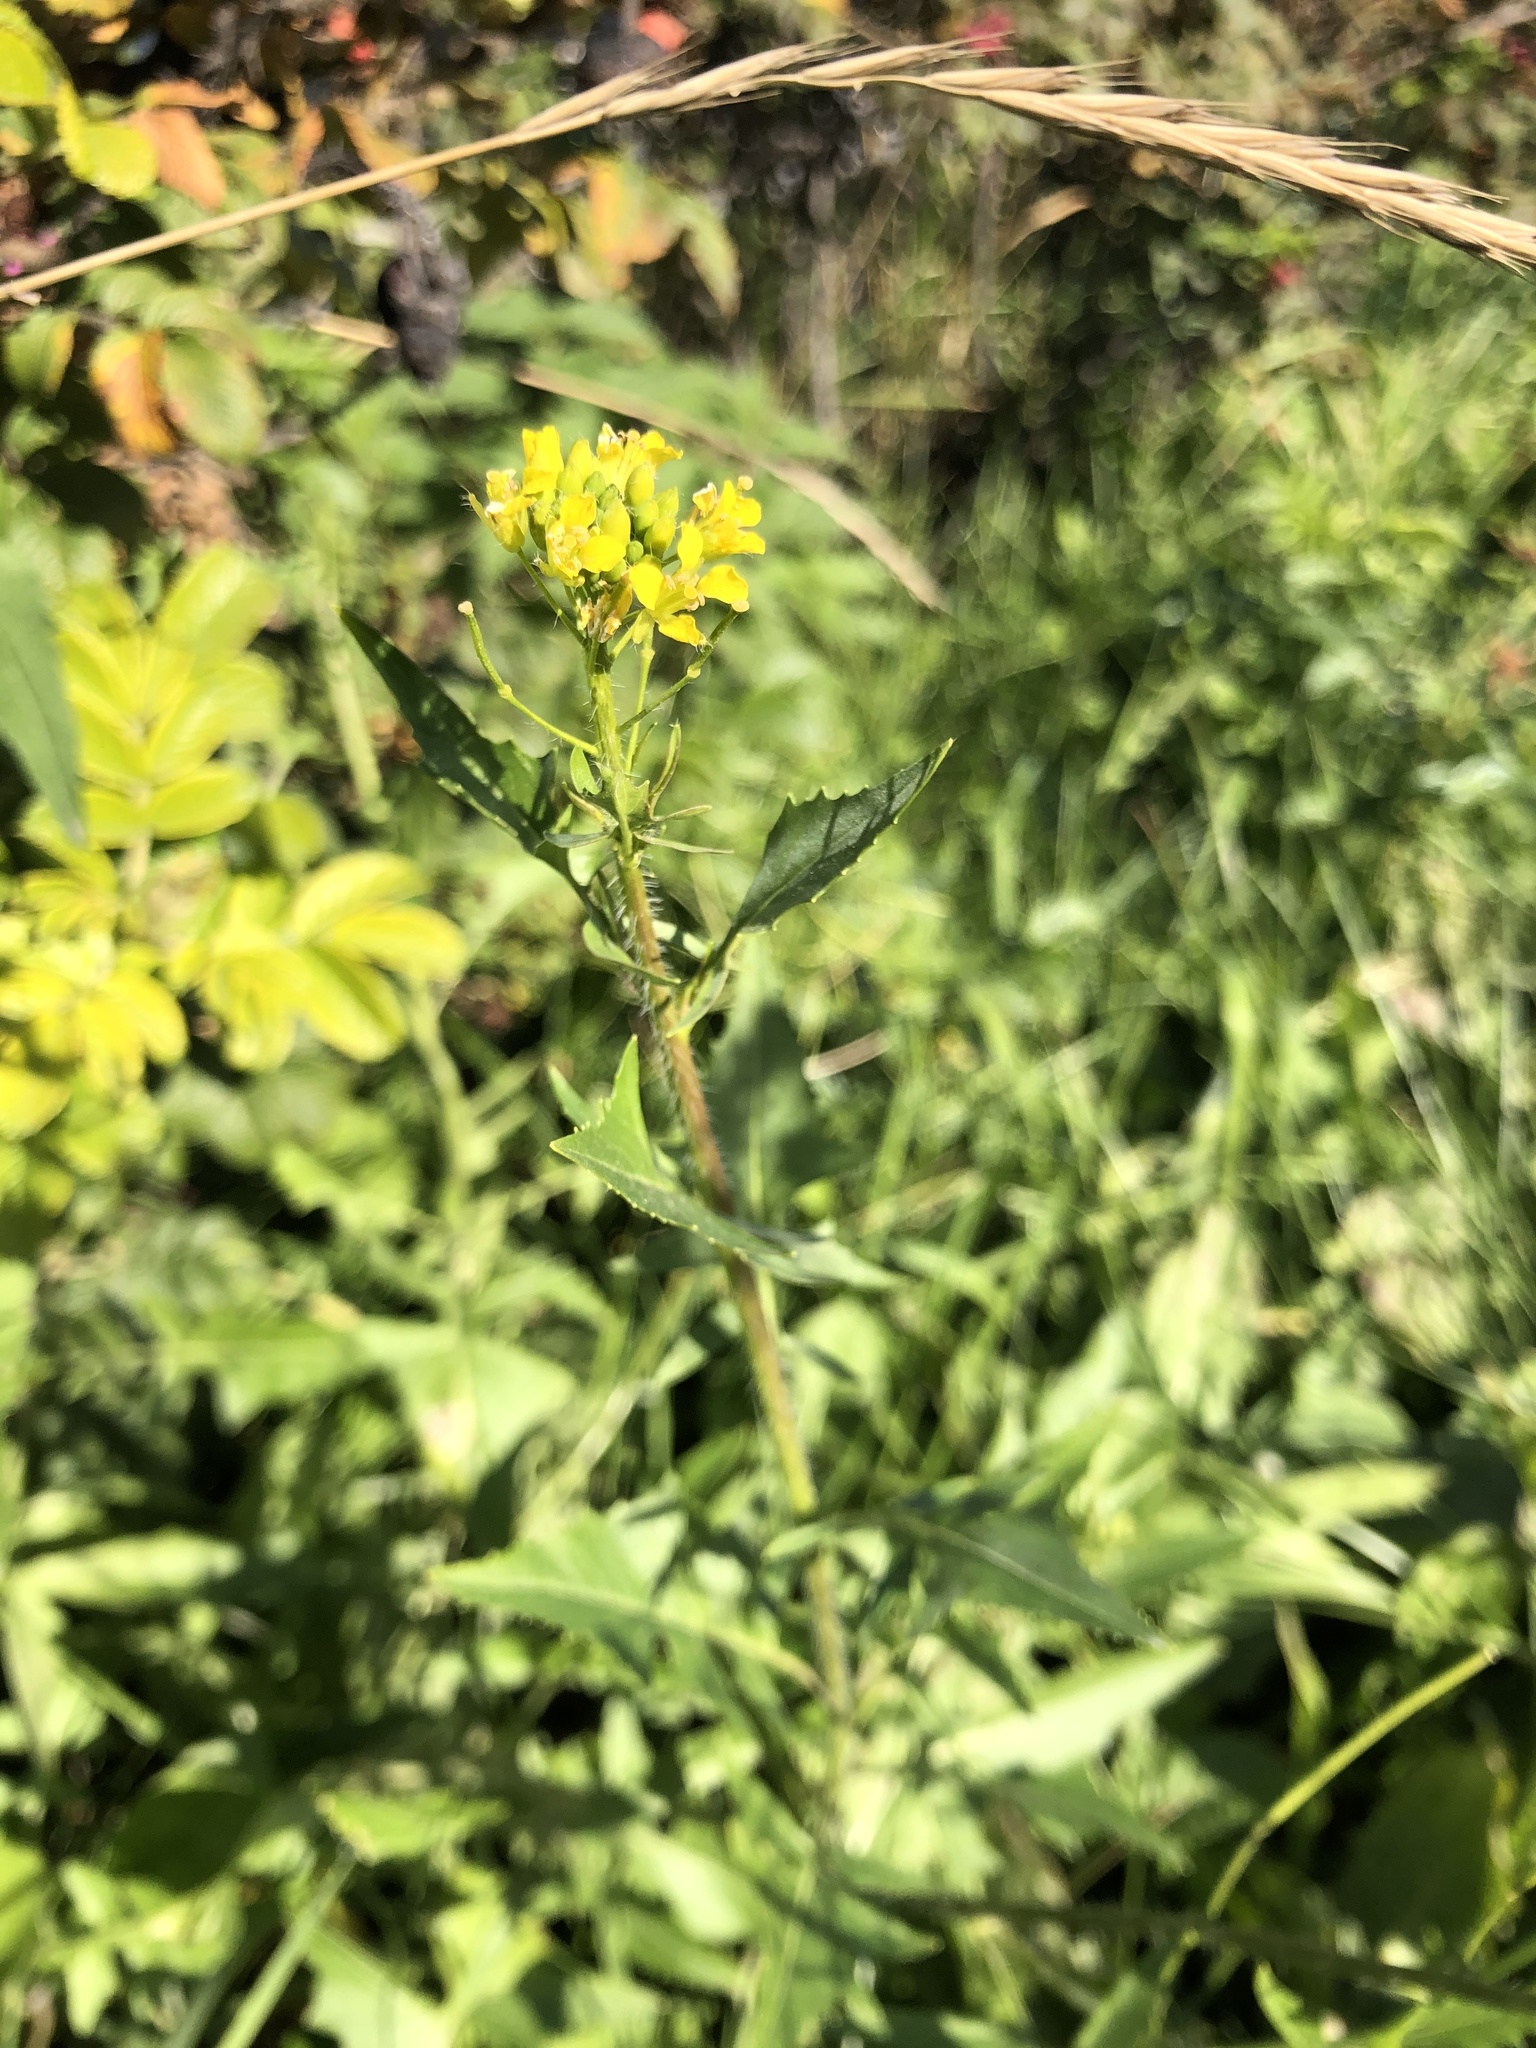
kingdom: Plantae
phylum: Tracheophyta
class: Magnoliopsida
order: Brassicales
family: Brassicaceae
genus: Sisymbrium
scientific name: Sisymbrium loeselii
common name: False london-rocket
